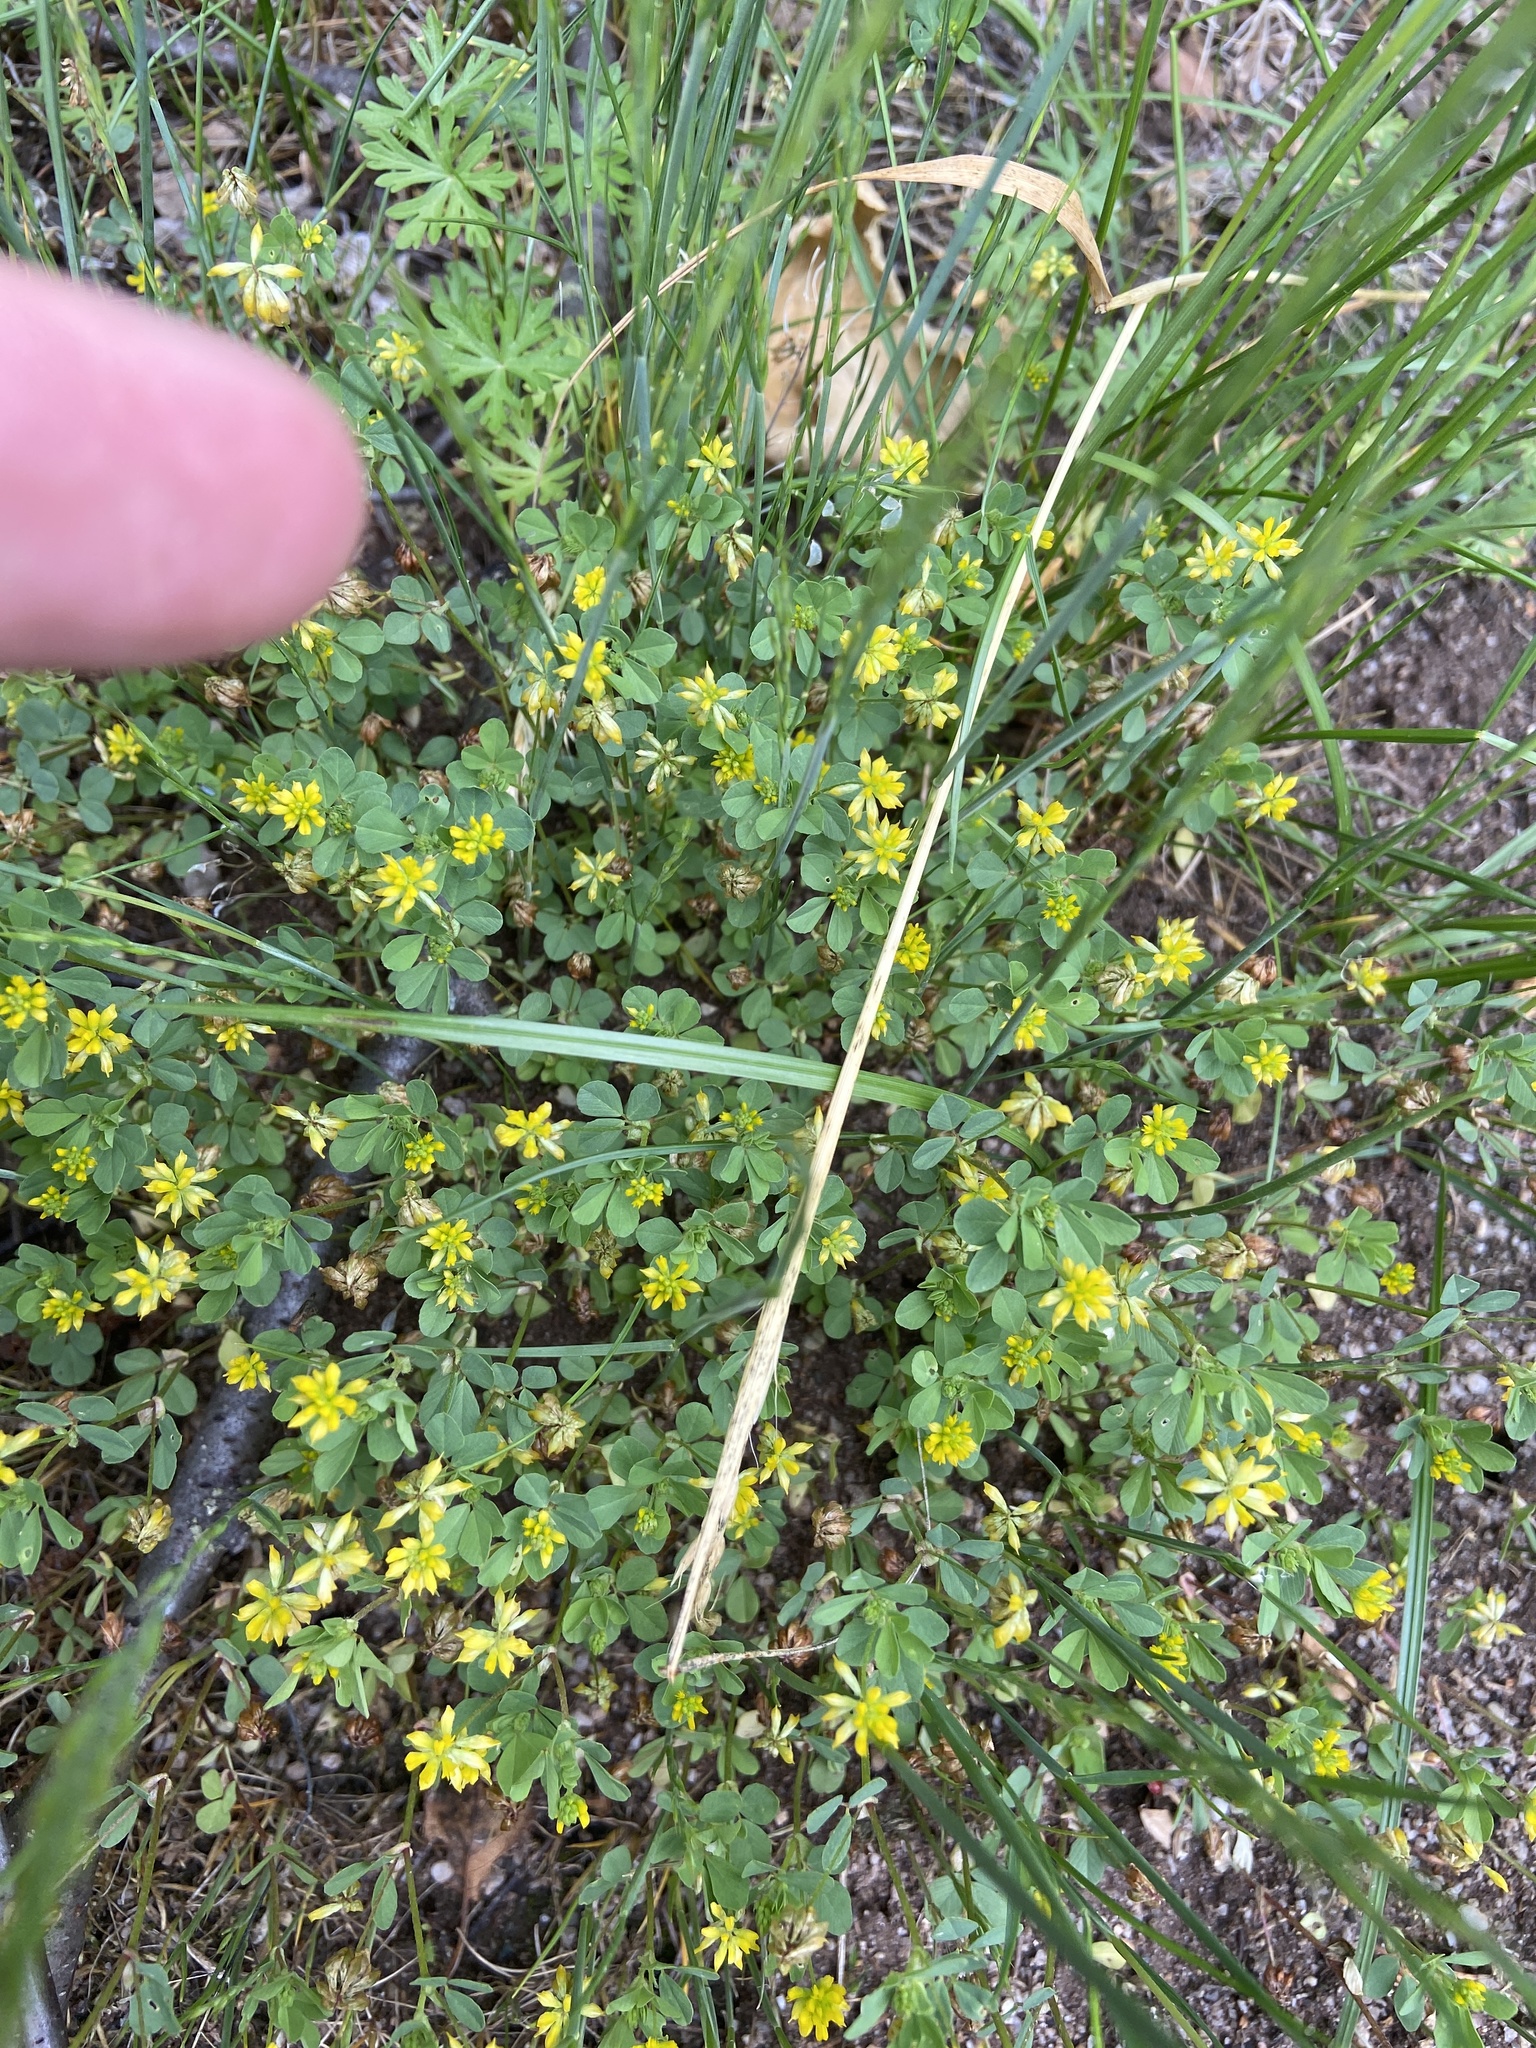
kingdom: Plantae
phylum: Tracheophyta
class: Magnoliopsida
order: Fabales
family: Fabaceae
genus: Trifolium
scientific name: Trifolium dubium
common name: Suckling clover
